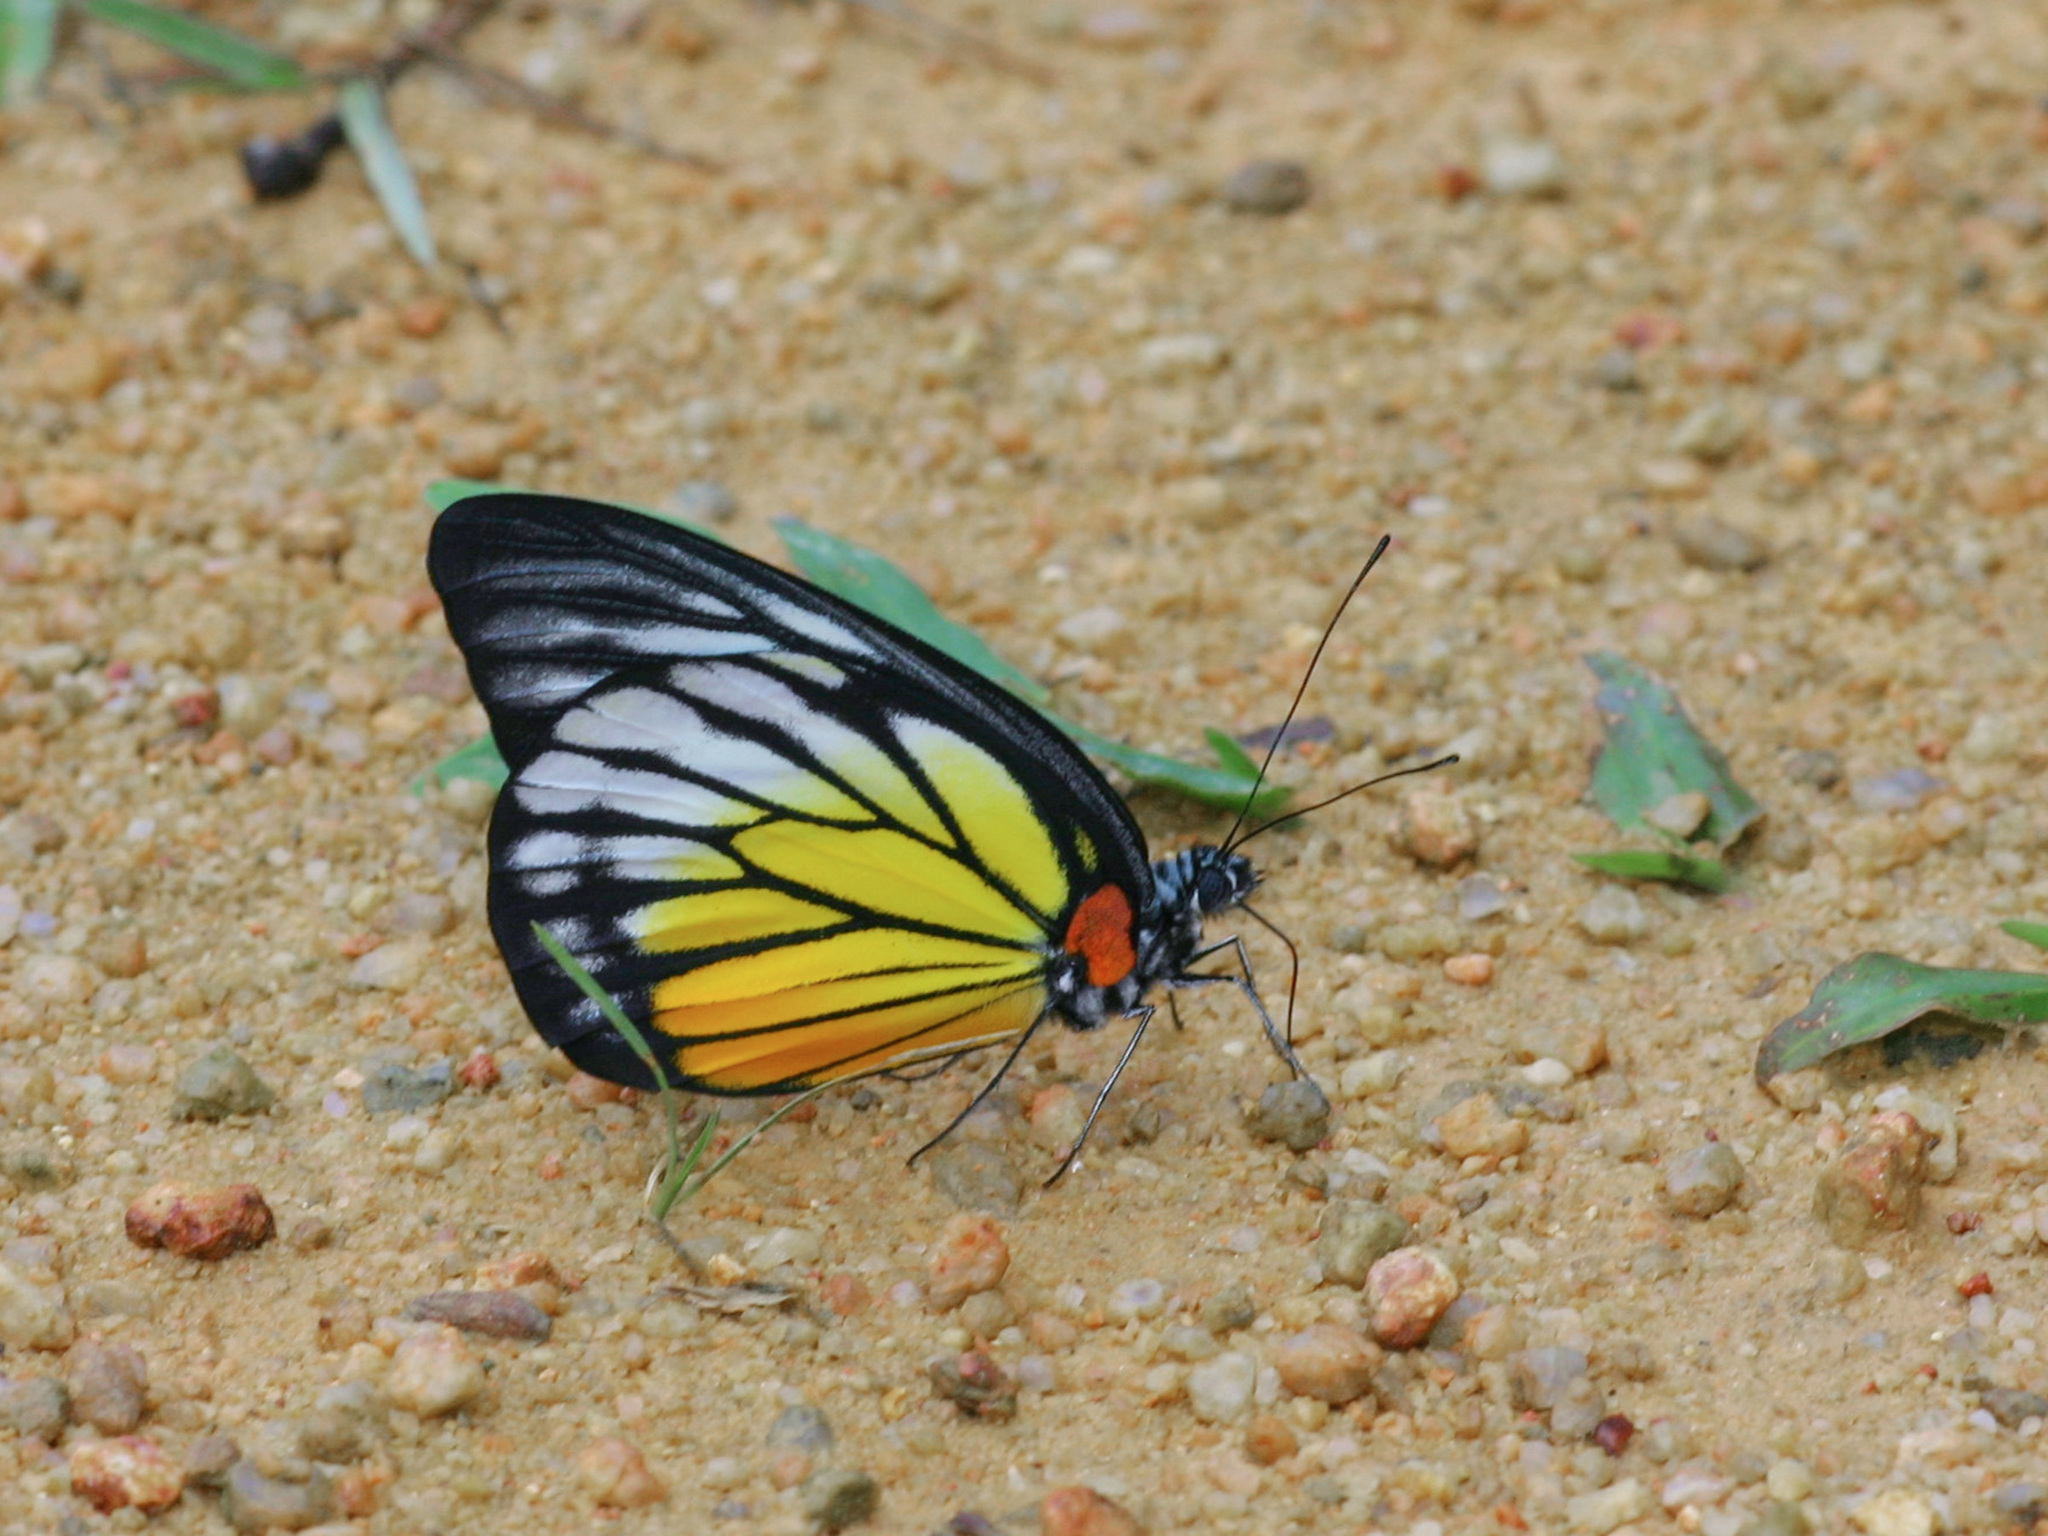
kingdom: Animalia
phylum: Arthropoda
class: Insecta
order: Lepidoptera
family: Pieridae
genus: Prioneris
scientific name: Prioneris philonome
